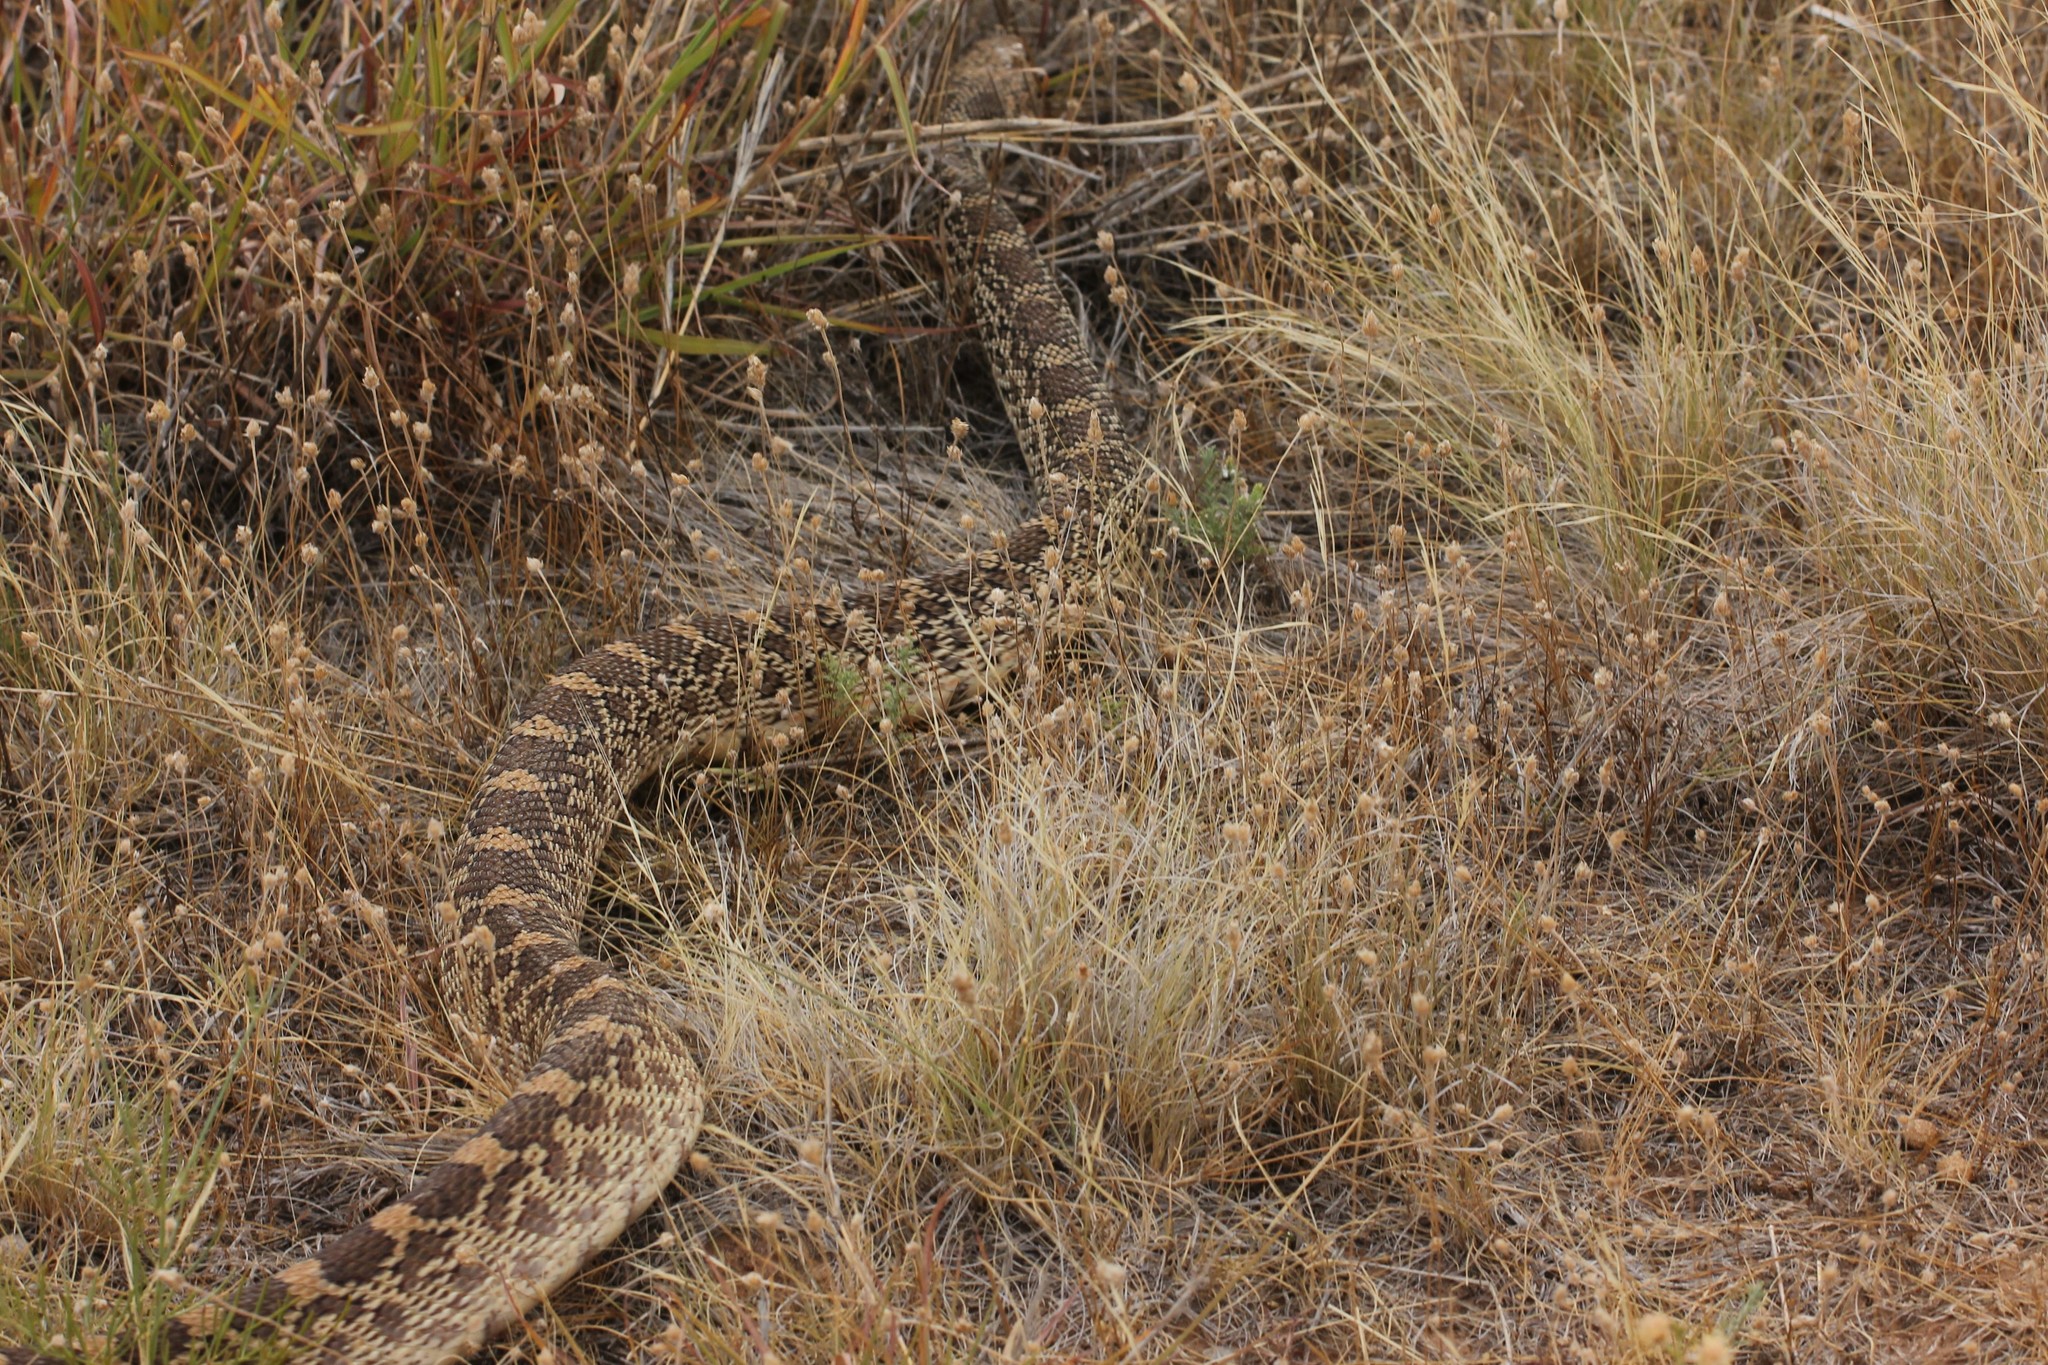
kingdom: Animalia
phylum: Chordata
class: Squamata
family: Colubridae
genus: Pituophis
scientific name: Pituophis catenifer
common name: Gopher snake
